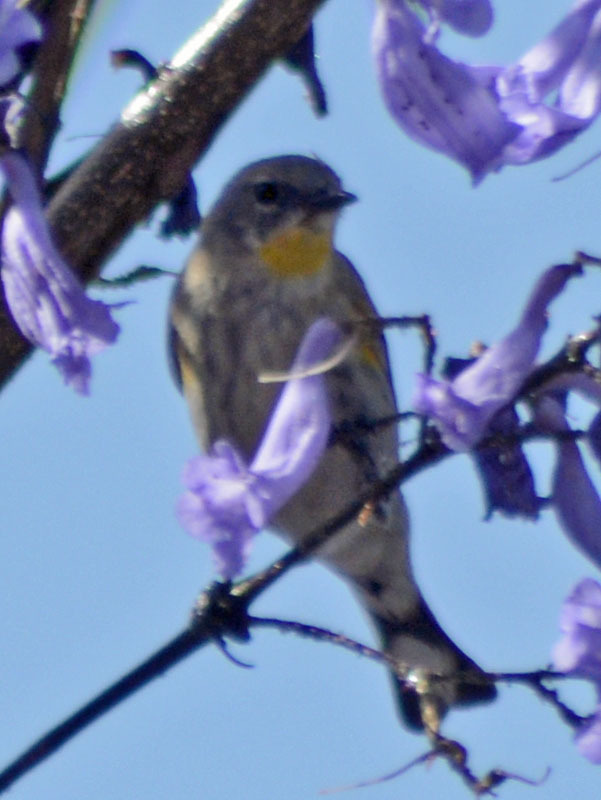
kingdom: Animalia
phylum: Chordata
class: Aves
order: Passeriformes
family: Parulidae
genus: Setophaga
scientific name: Setophaga auduboni
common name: Audubon's warbler
